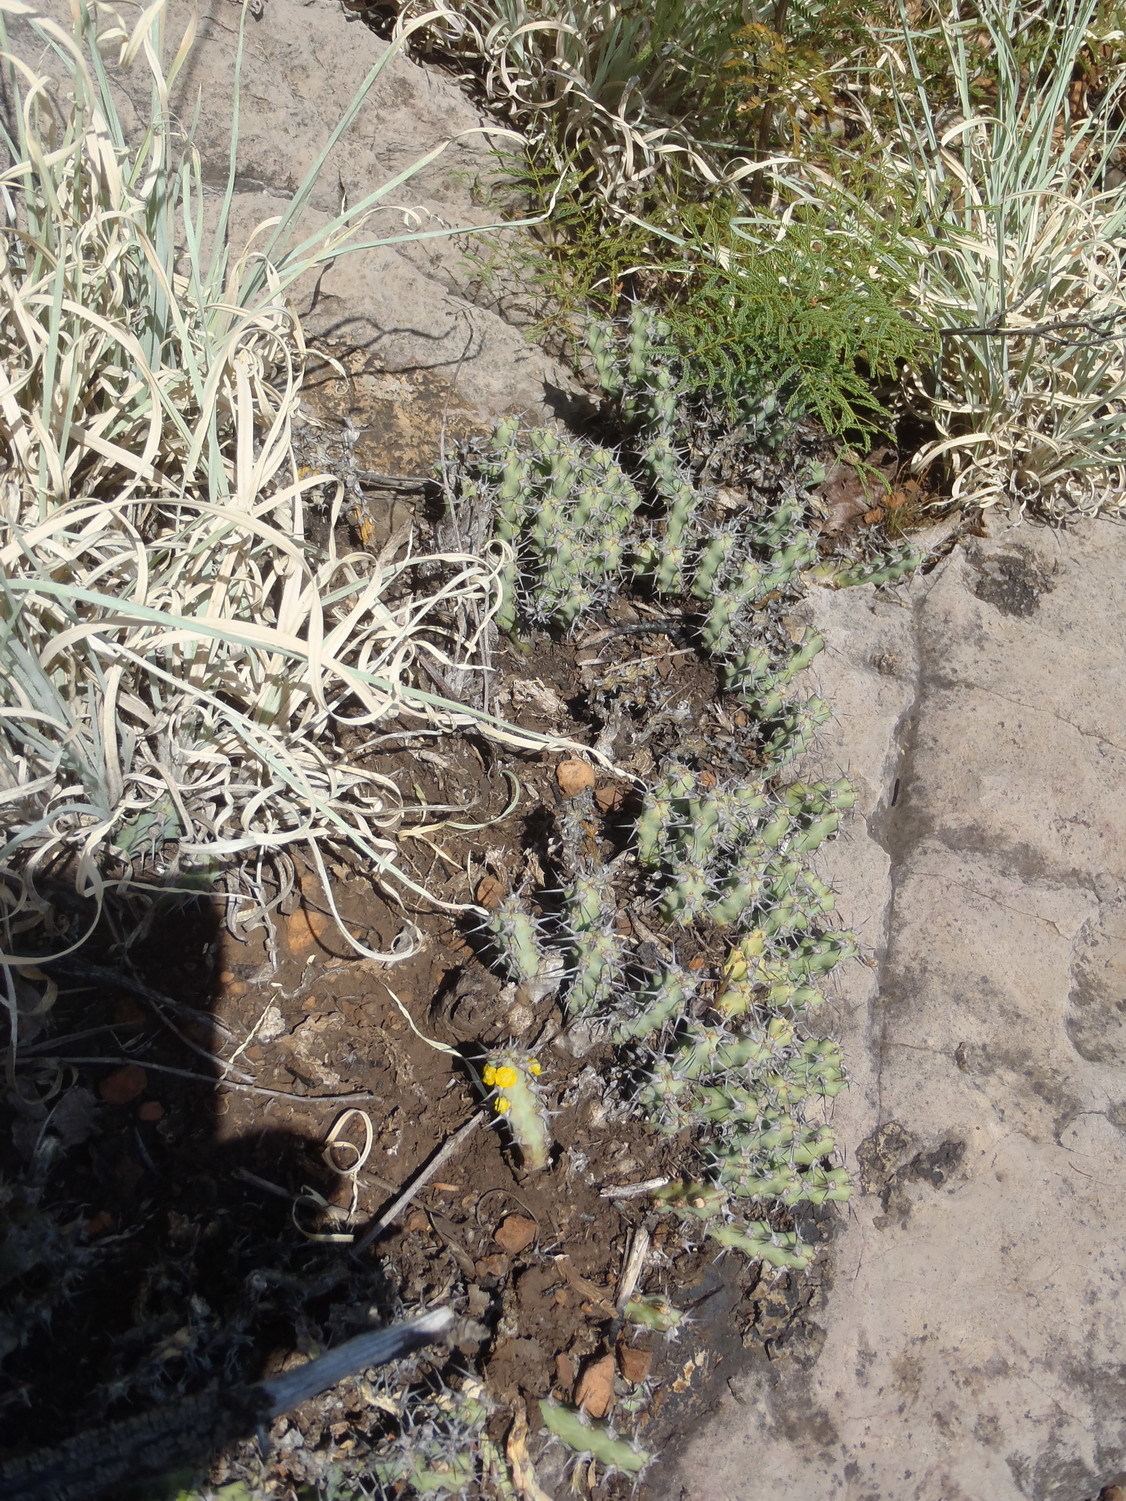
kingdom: Plantae
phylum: Tracheophyta
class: Magnoliopsida
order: Malpighiales
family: Euphorbiaceae
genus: Euphorbia
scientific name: Euphorbia schinzii
